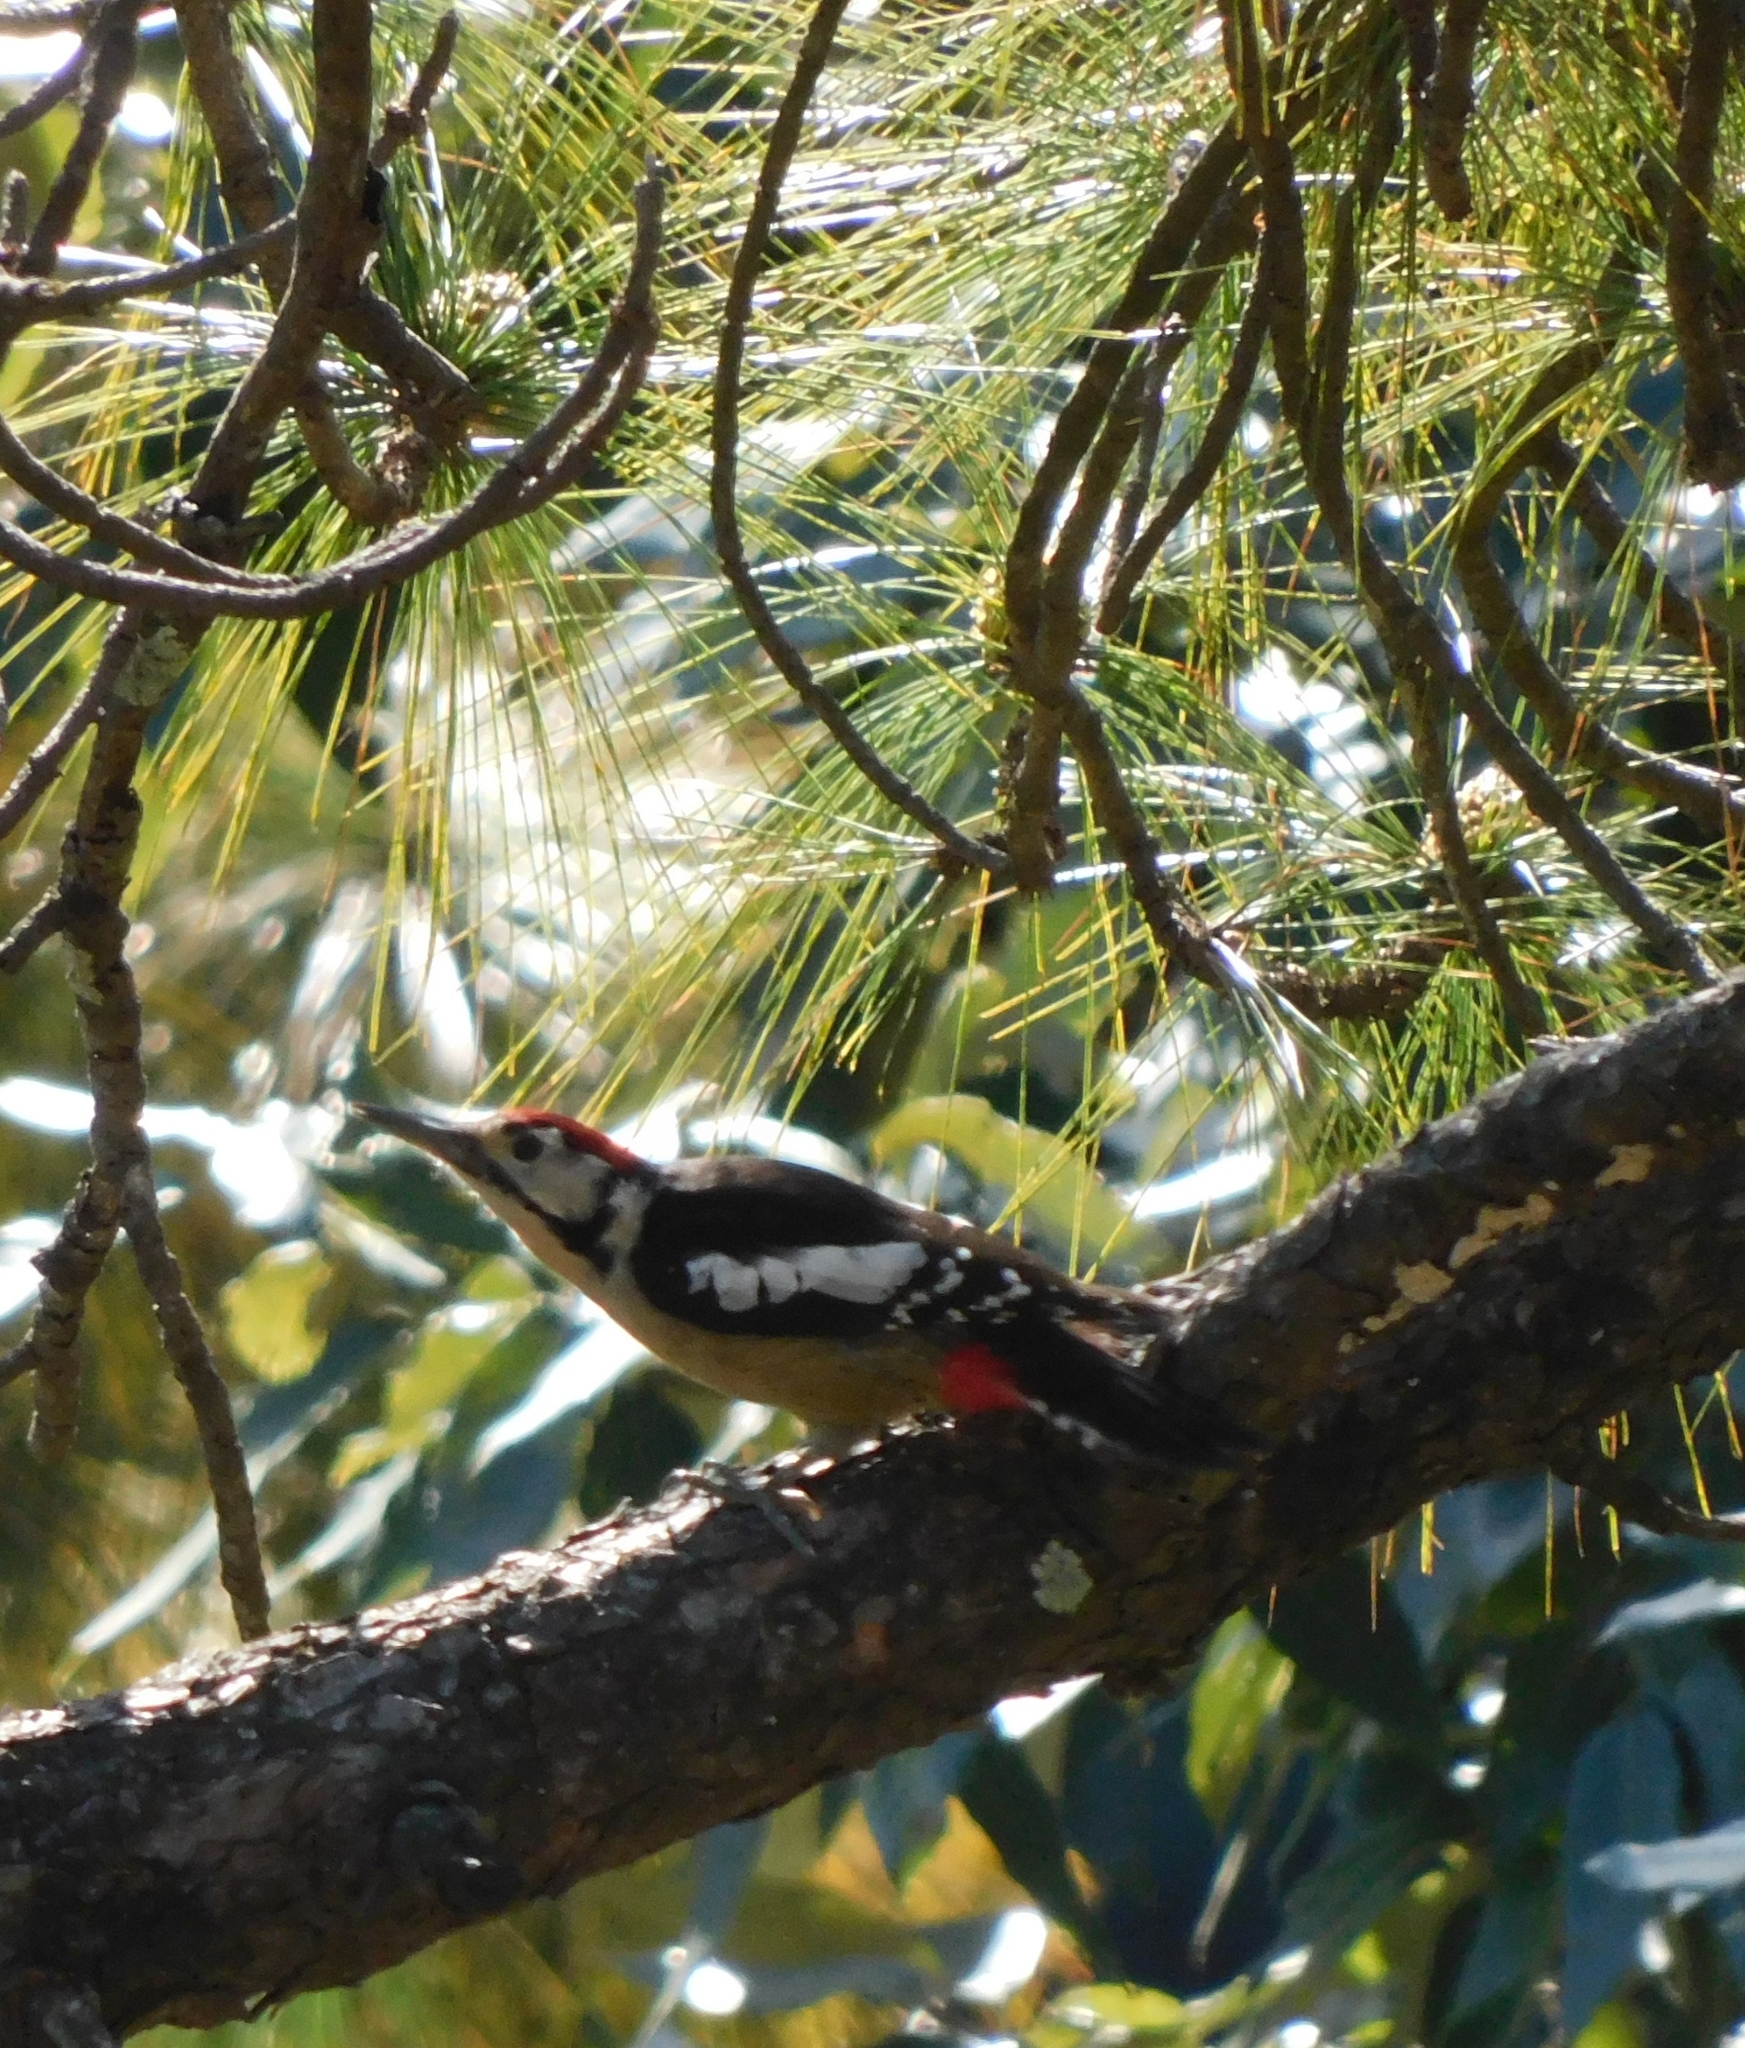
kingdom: Animalia
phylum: Chordata
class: Aves
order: Piciformes
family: Picidae
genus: Dendrocopos
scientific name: Dendrocopos himalayensis
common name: Himalayan woodpecker
